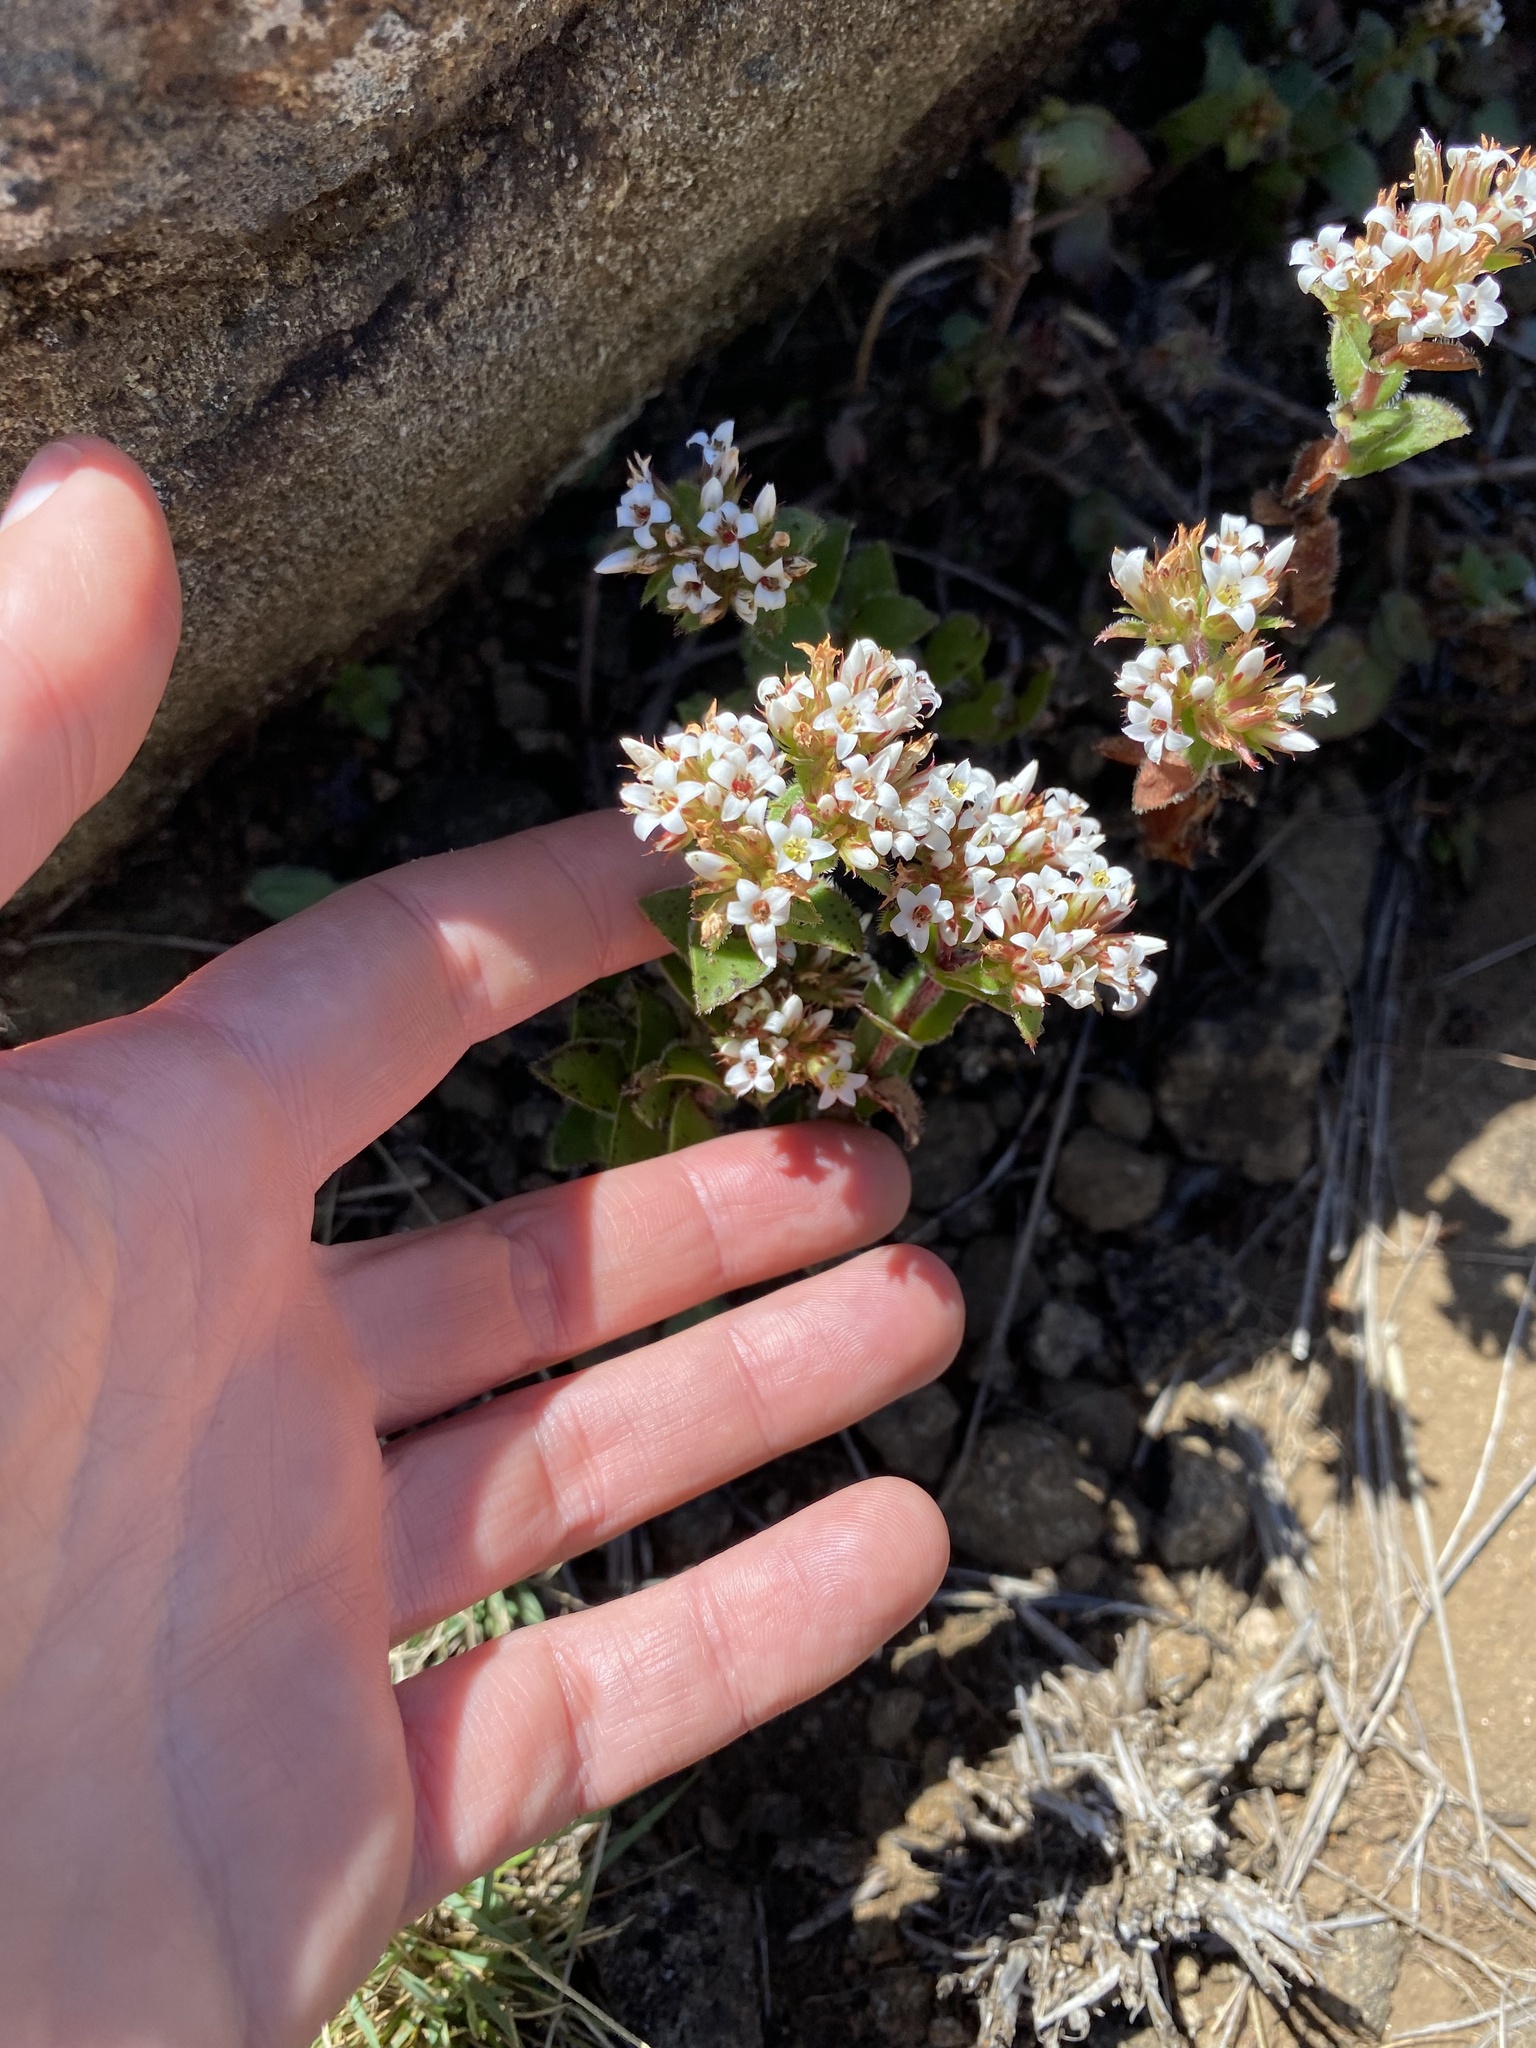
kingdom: Plantae
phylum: Tracheophyta
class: Magnoliopsida
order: Saxifragales
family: Crassulaceae
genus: Crassula
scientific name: Crassula obovata
